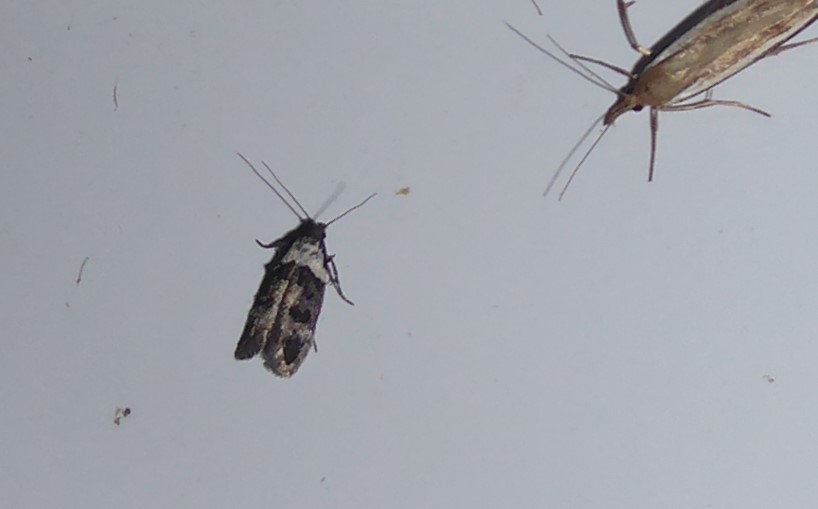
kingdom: Animalia
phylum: Arthropoda
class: Insecta
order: Lepidoptera
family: Oecophoridae
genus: Trachypepla
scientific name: Trachypepla conspicuella
